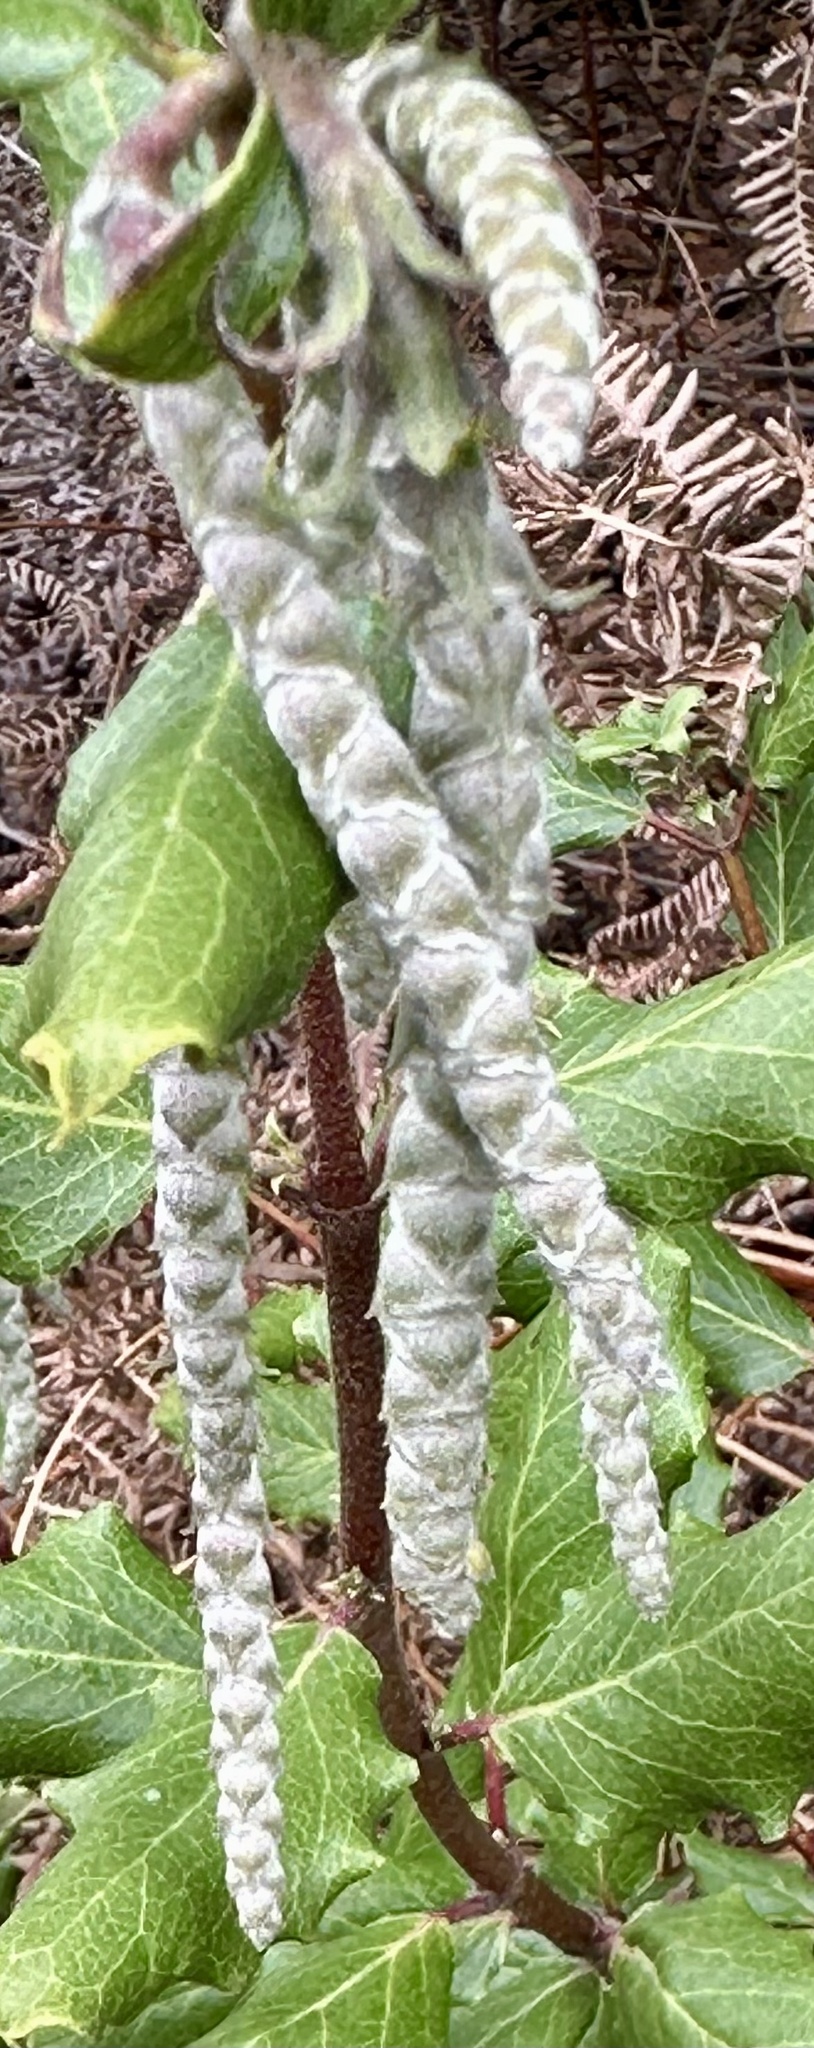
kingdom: Plantae
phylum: Tracheophyta
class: Magnoliopsida
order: Garryales
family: Garryaceae
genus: Garrya
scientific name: Garrya elliptica
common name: Silk-tassel
